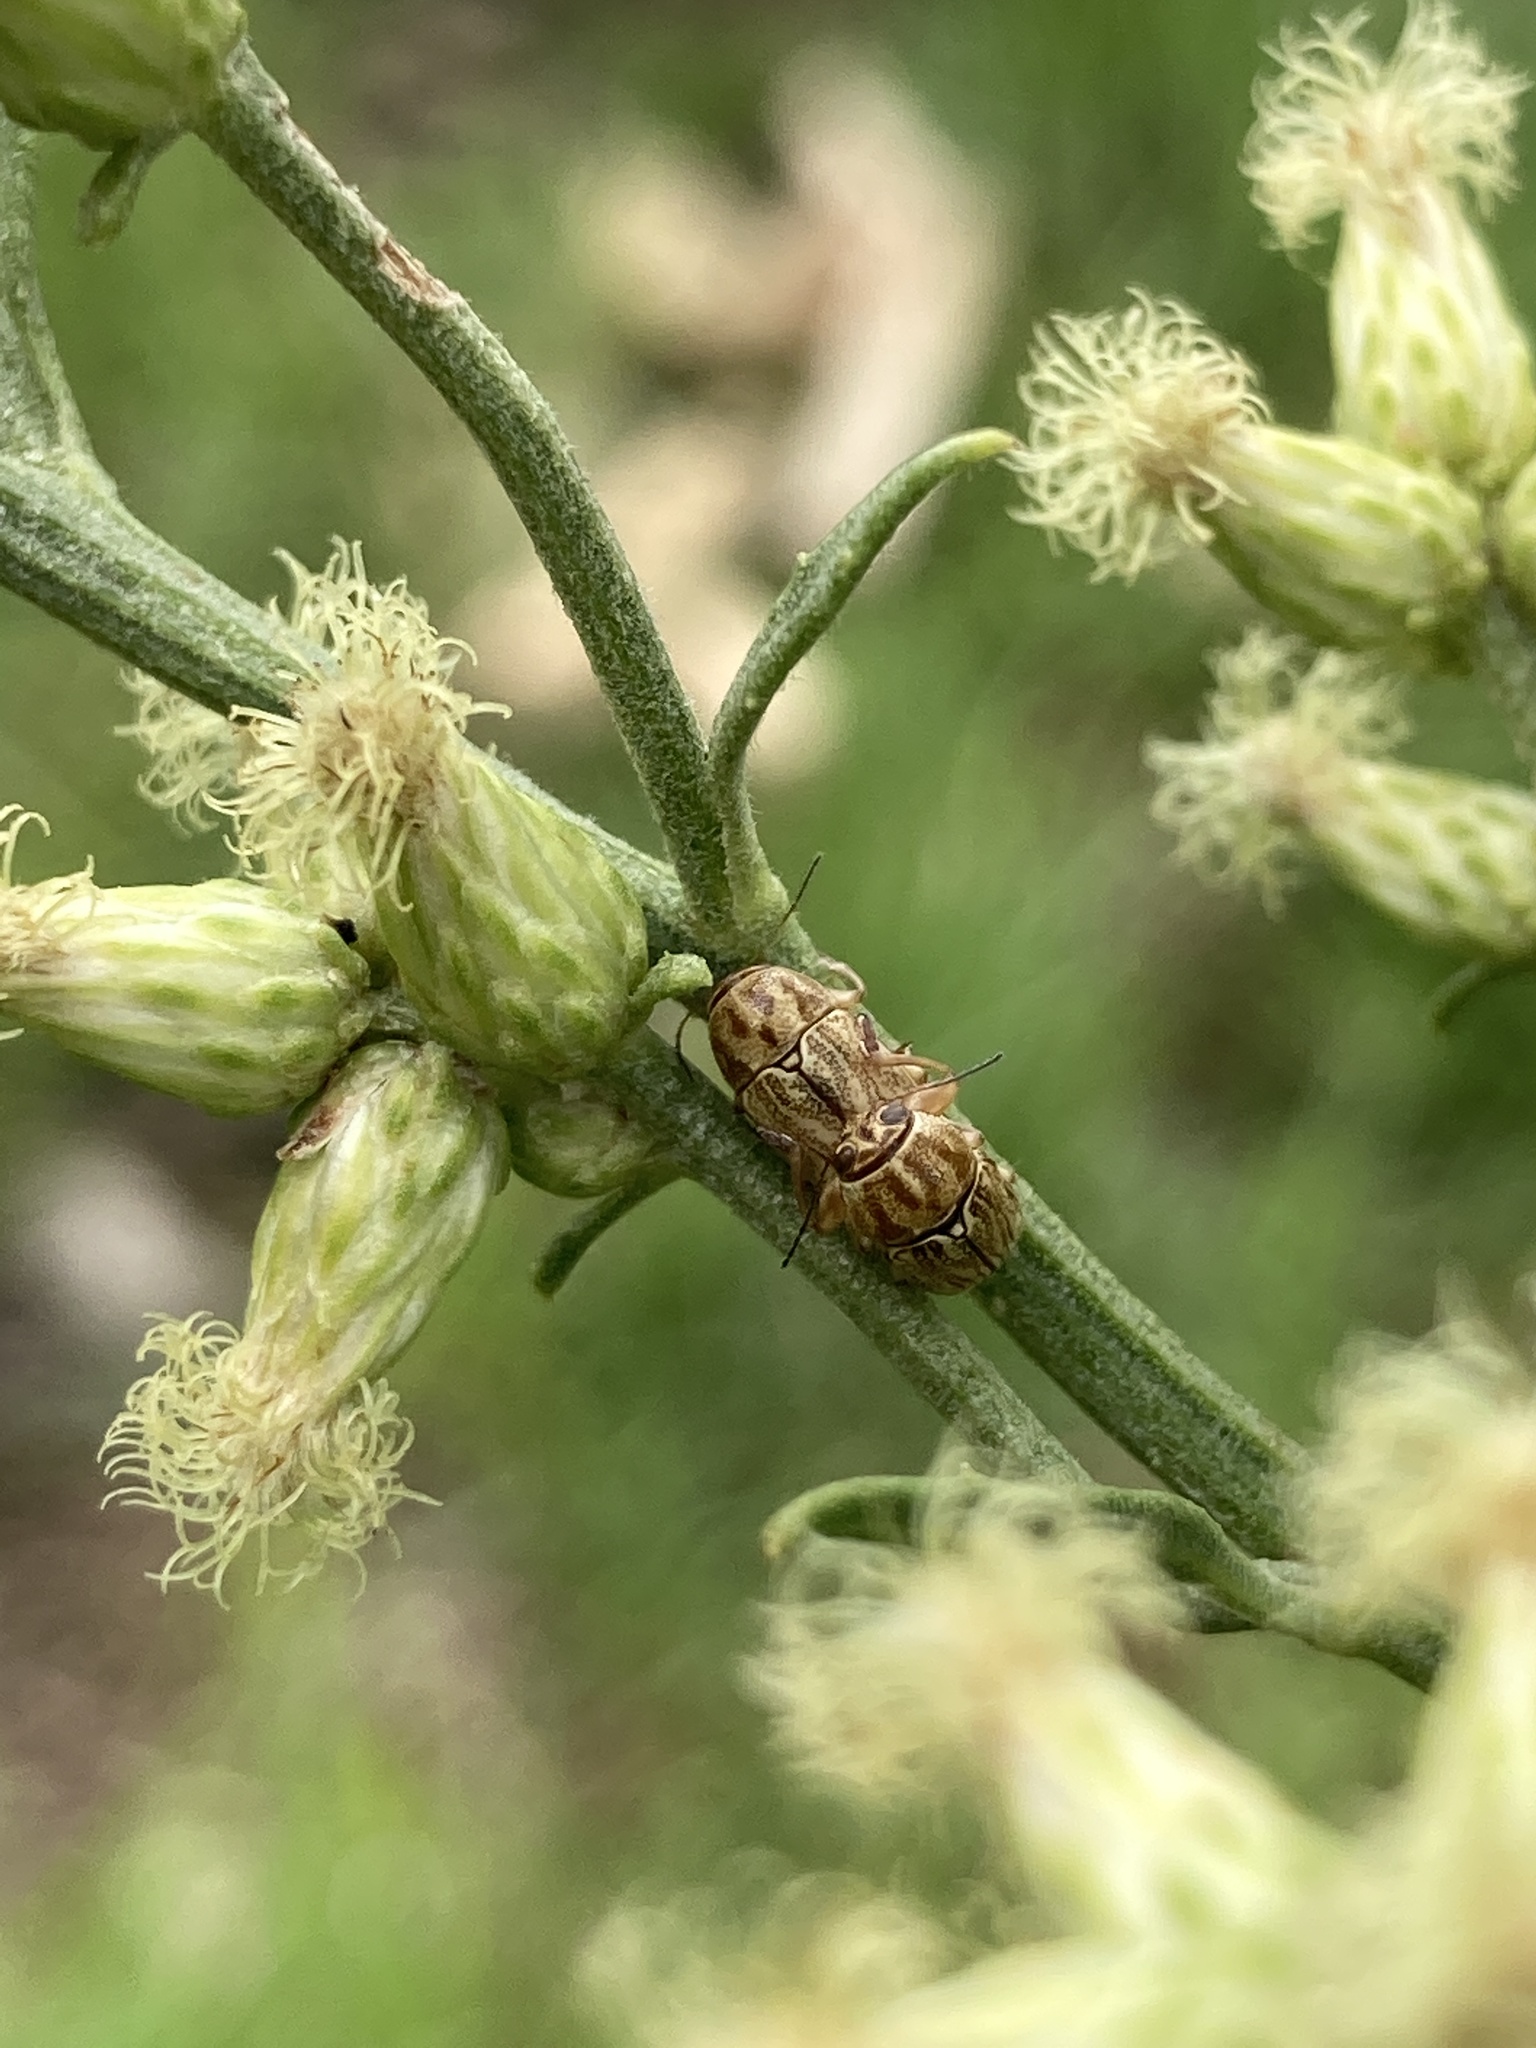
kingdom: Animalia
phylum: Arthropoda
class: Insecta
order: Coleoptera
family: Chrysomelidae
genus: Pachybrachis
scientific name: Pachybrachis
